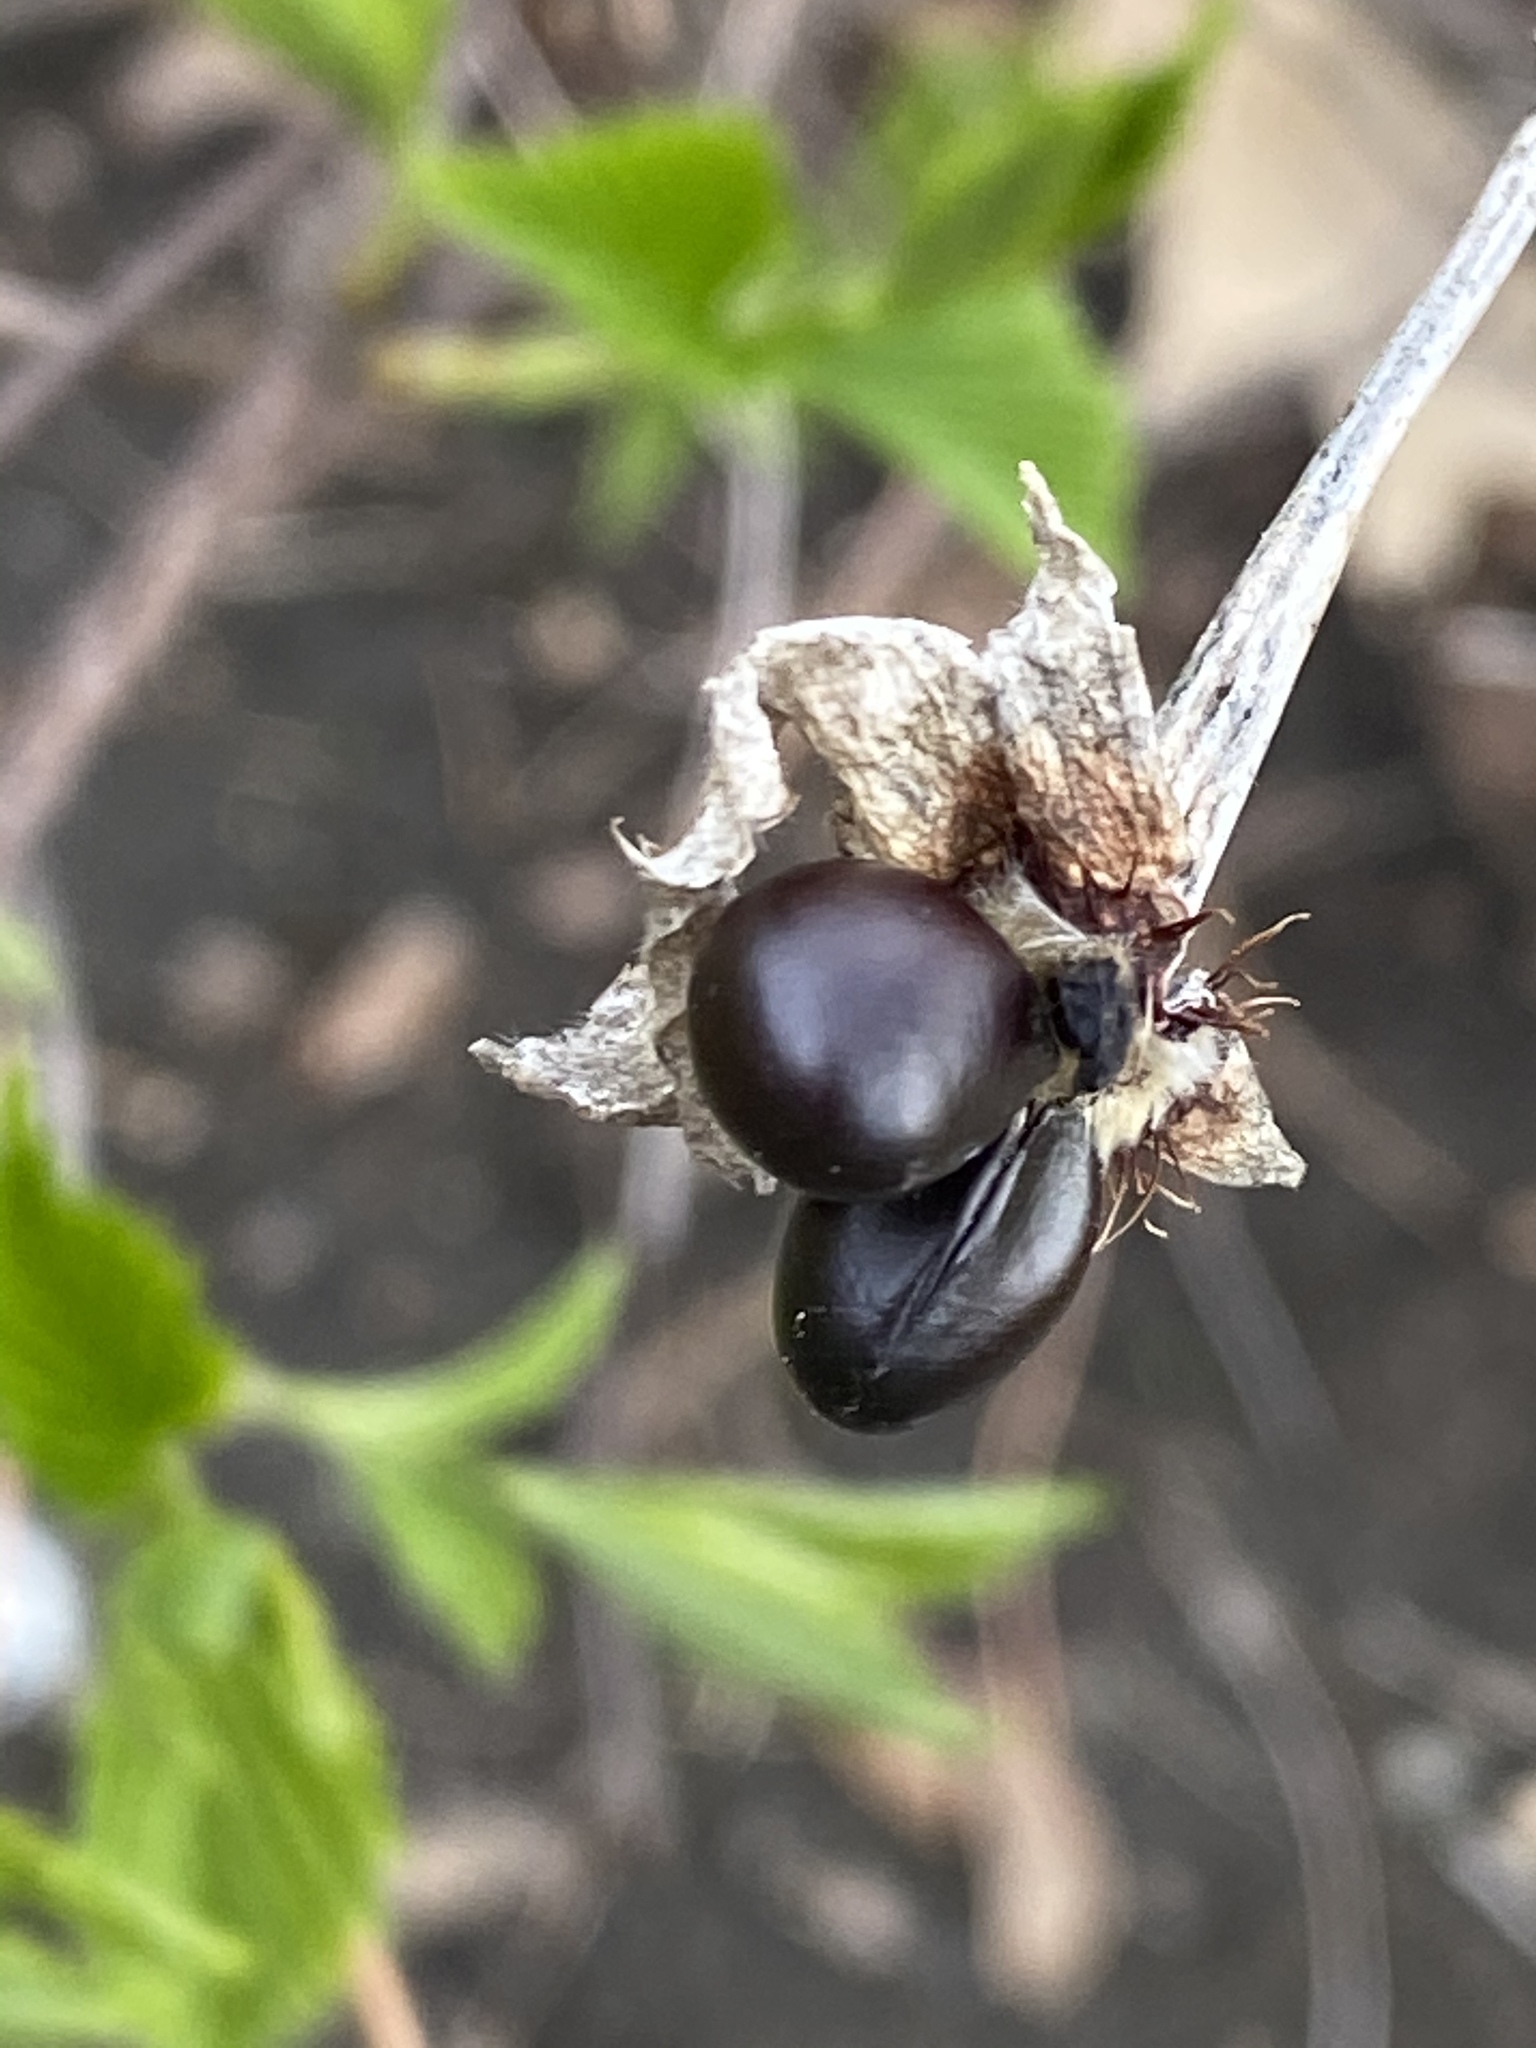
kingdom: Plantae
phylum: Tracheophyta
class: Magnoliopsida
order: Rosales
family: Rosaceae
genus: Rhodotypos
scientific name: Rhodotypos scandens
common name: Jetbead
